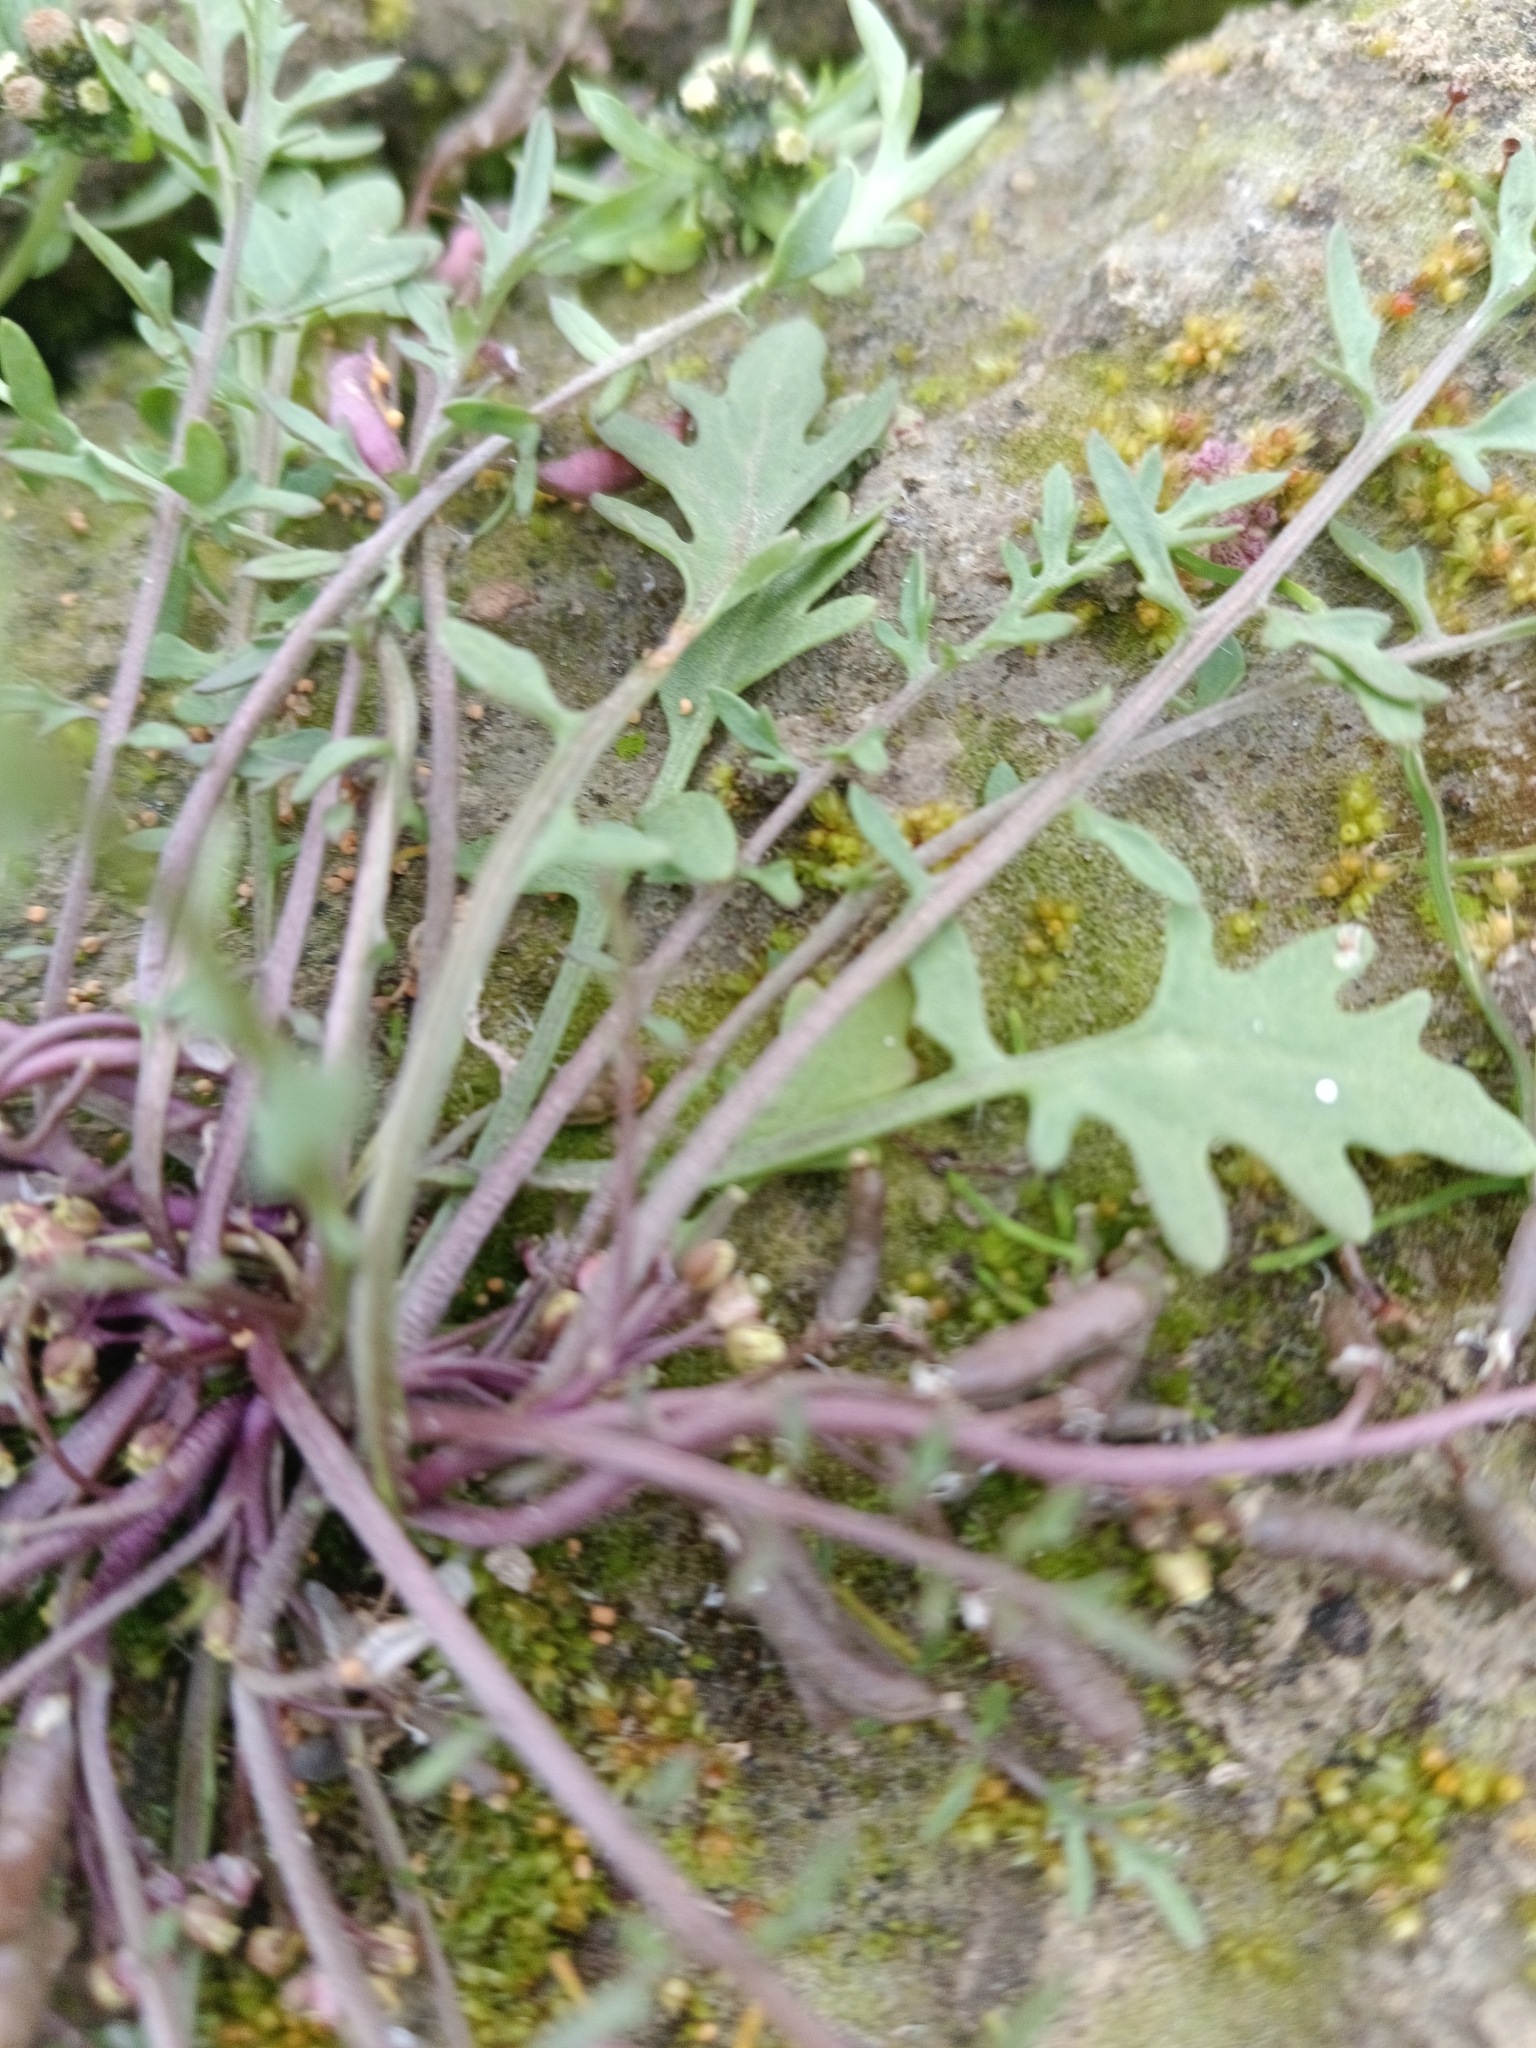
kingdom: Plantae
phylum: Tracheophyta
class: Magnoliopsida
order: Brassicales
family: Brassicaceae
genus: Rorippa
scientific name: Rorippa islandica
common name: Marsh cress
